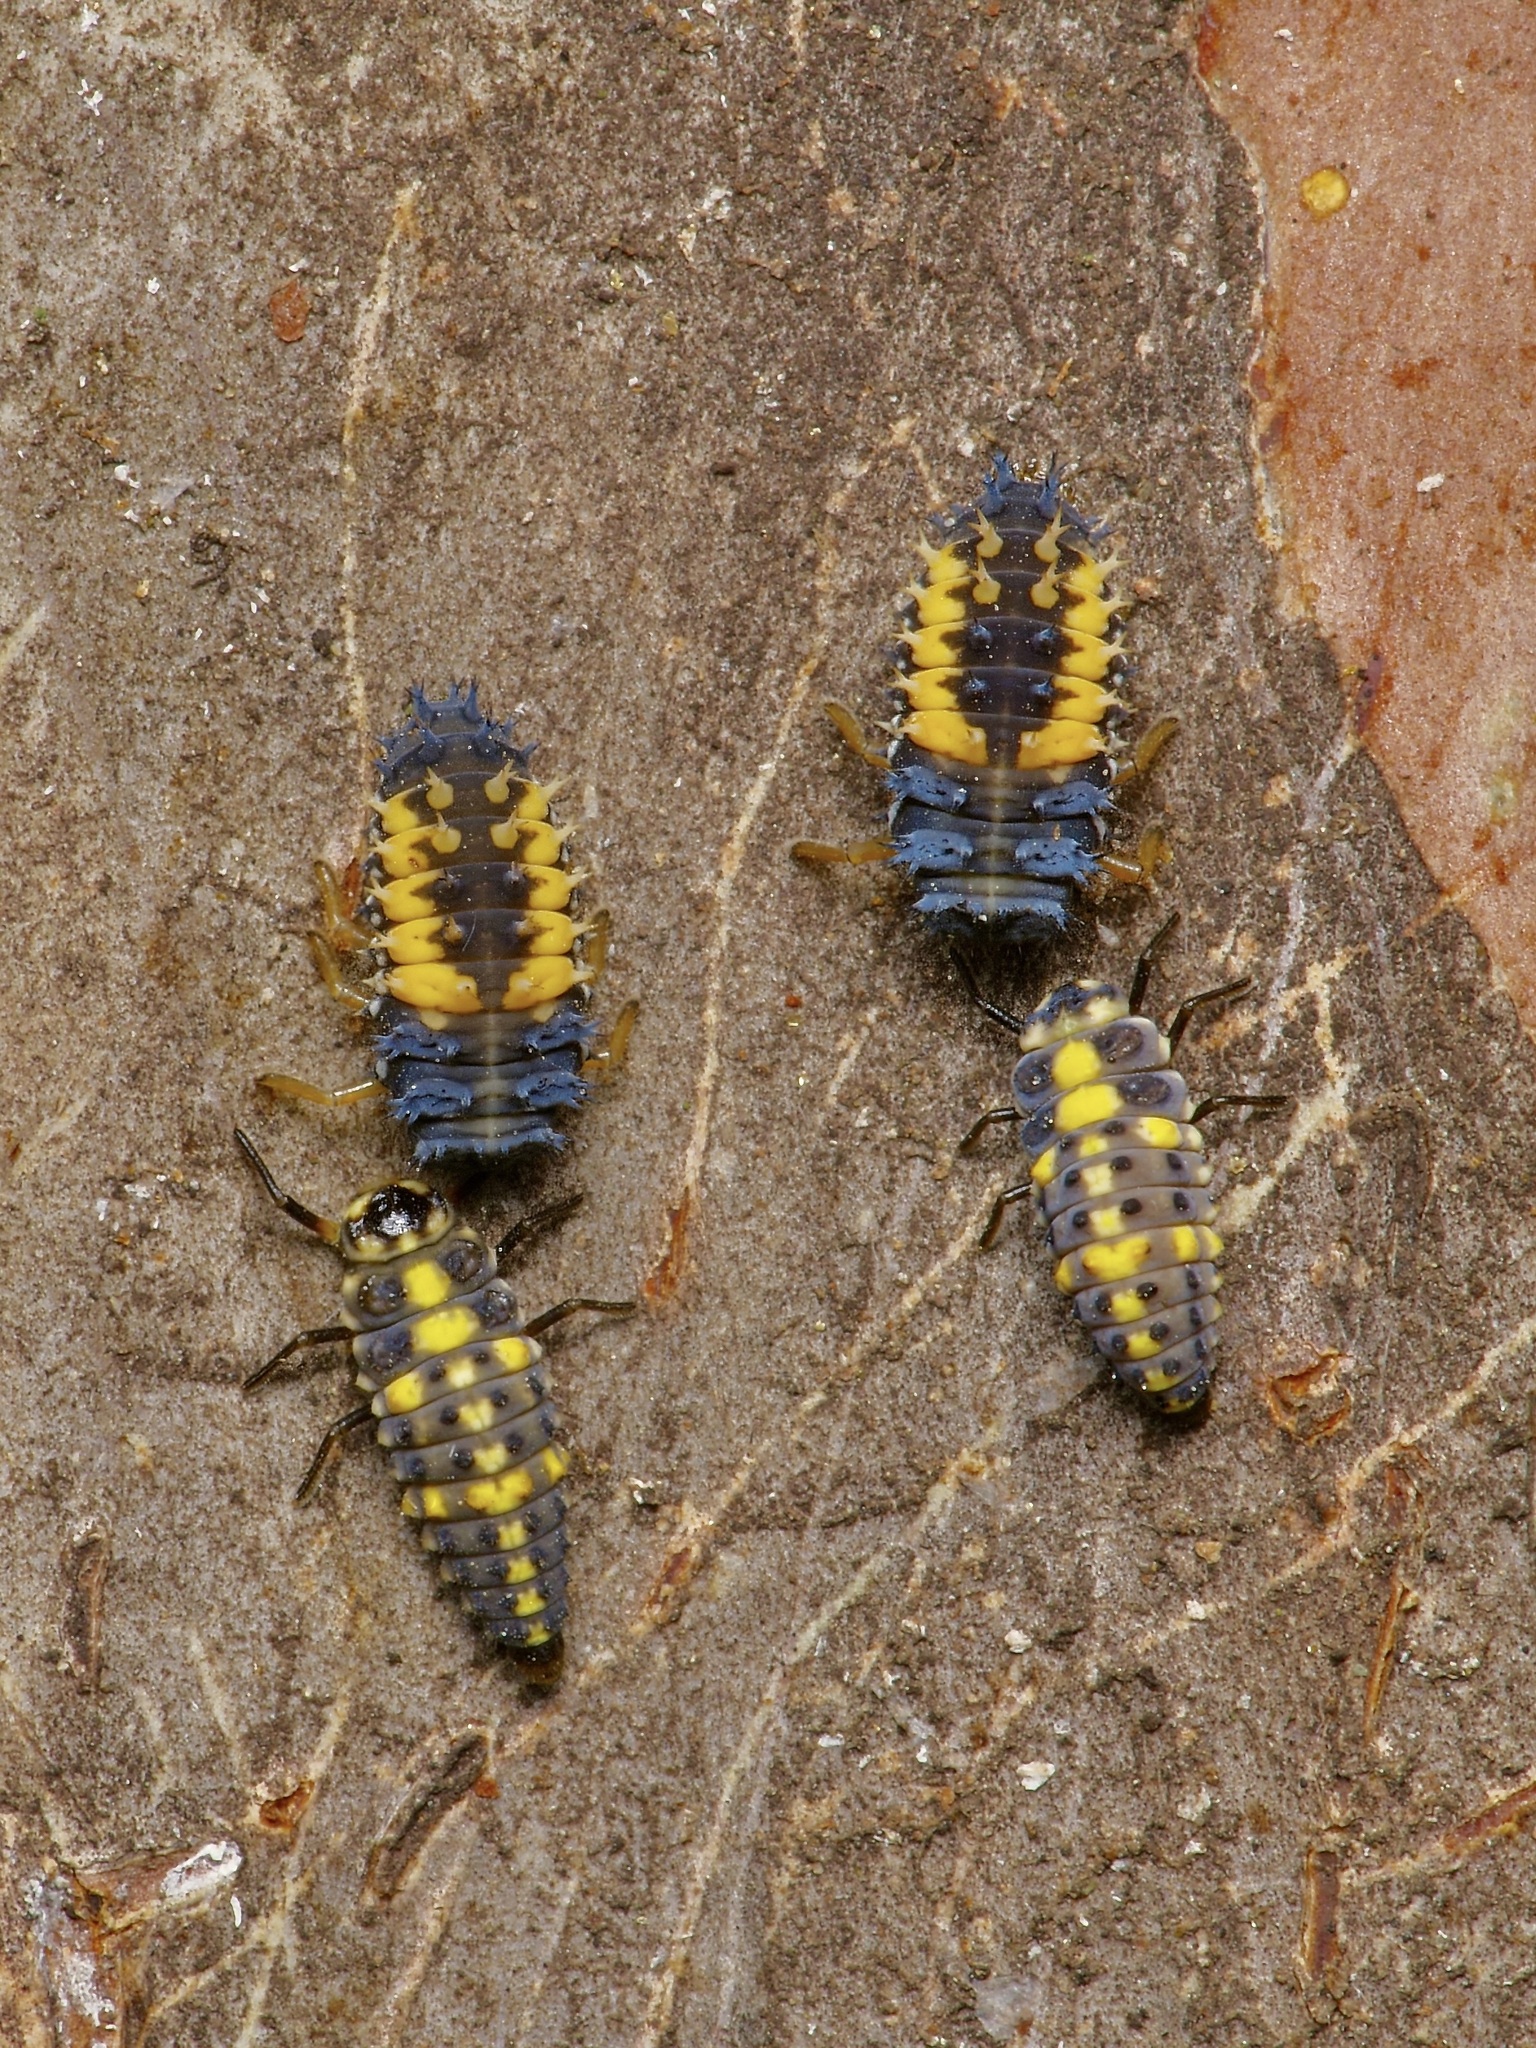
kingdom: Animalia
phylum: Arthropoda
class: Insecta
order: Coleoptera
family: Coccinellidae
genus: Harmonia
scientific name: Harmonia axyridis
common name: Harlequin ladybird
